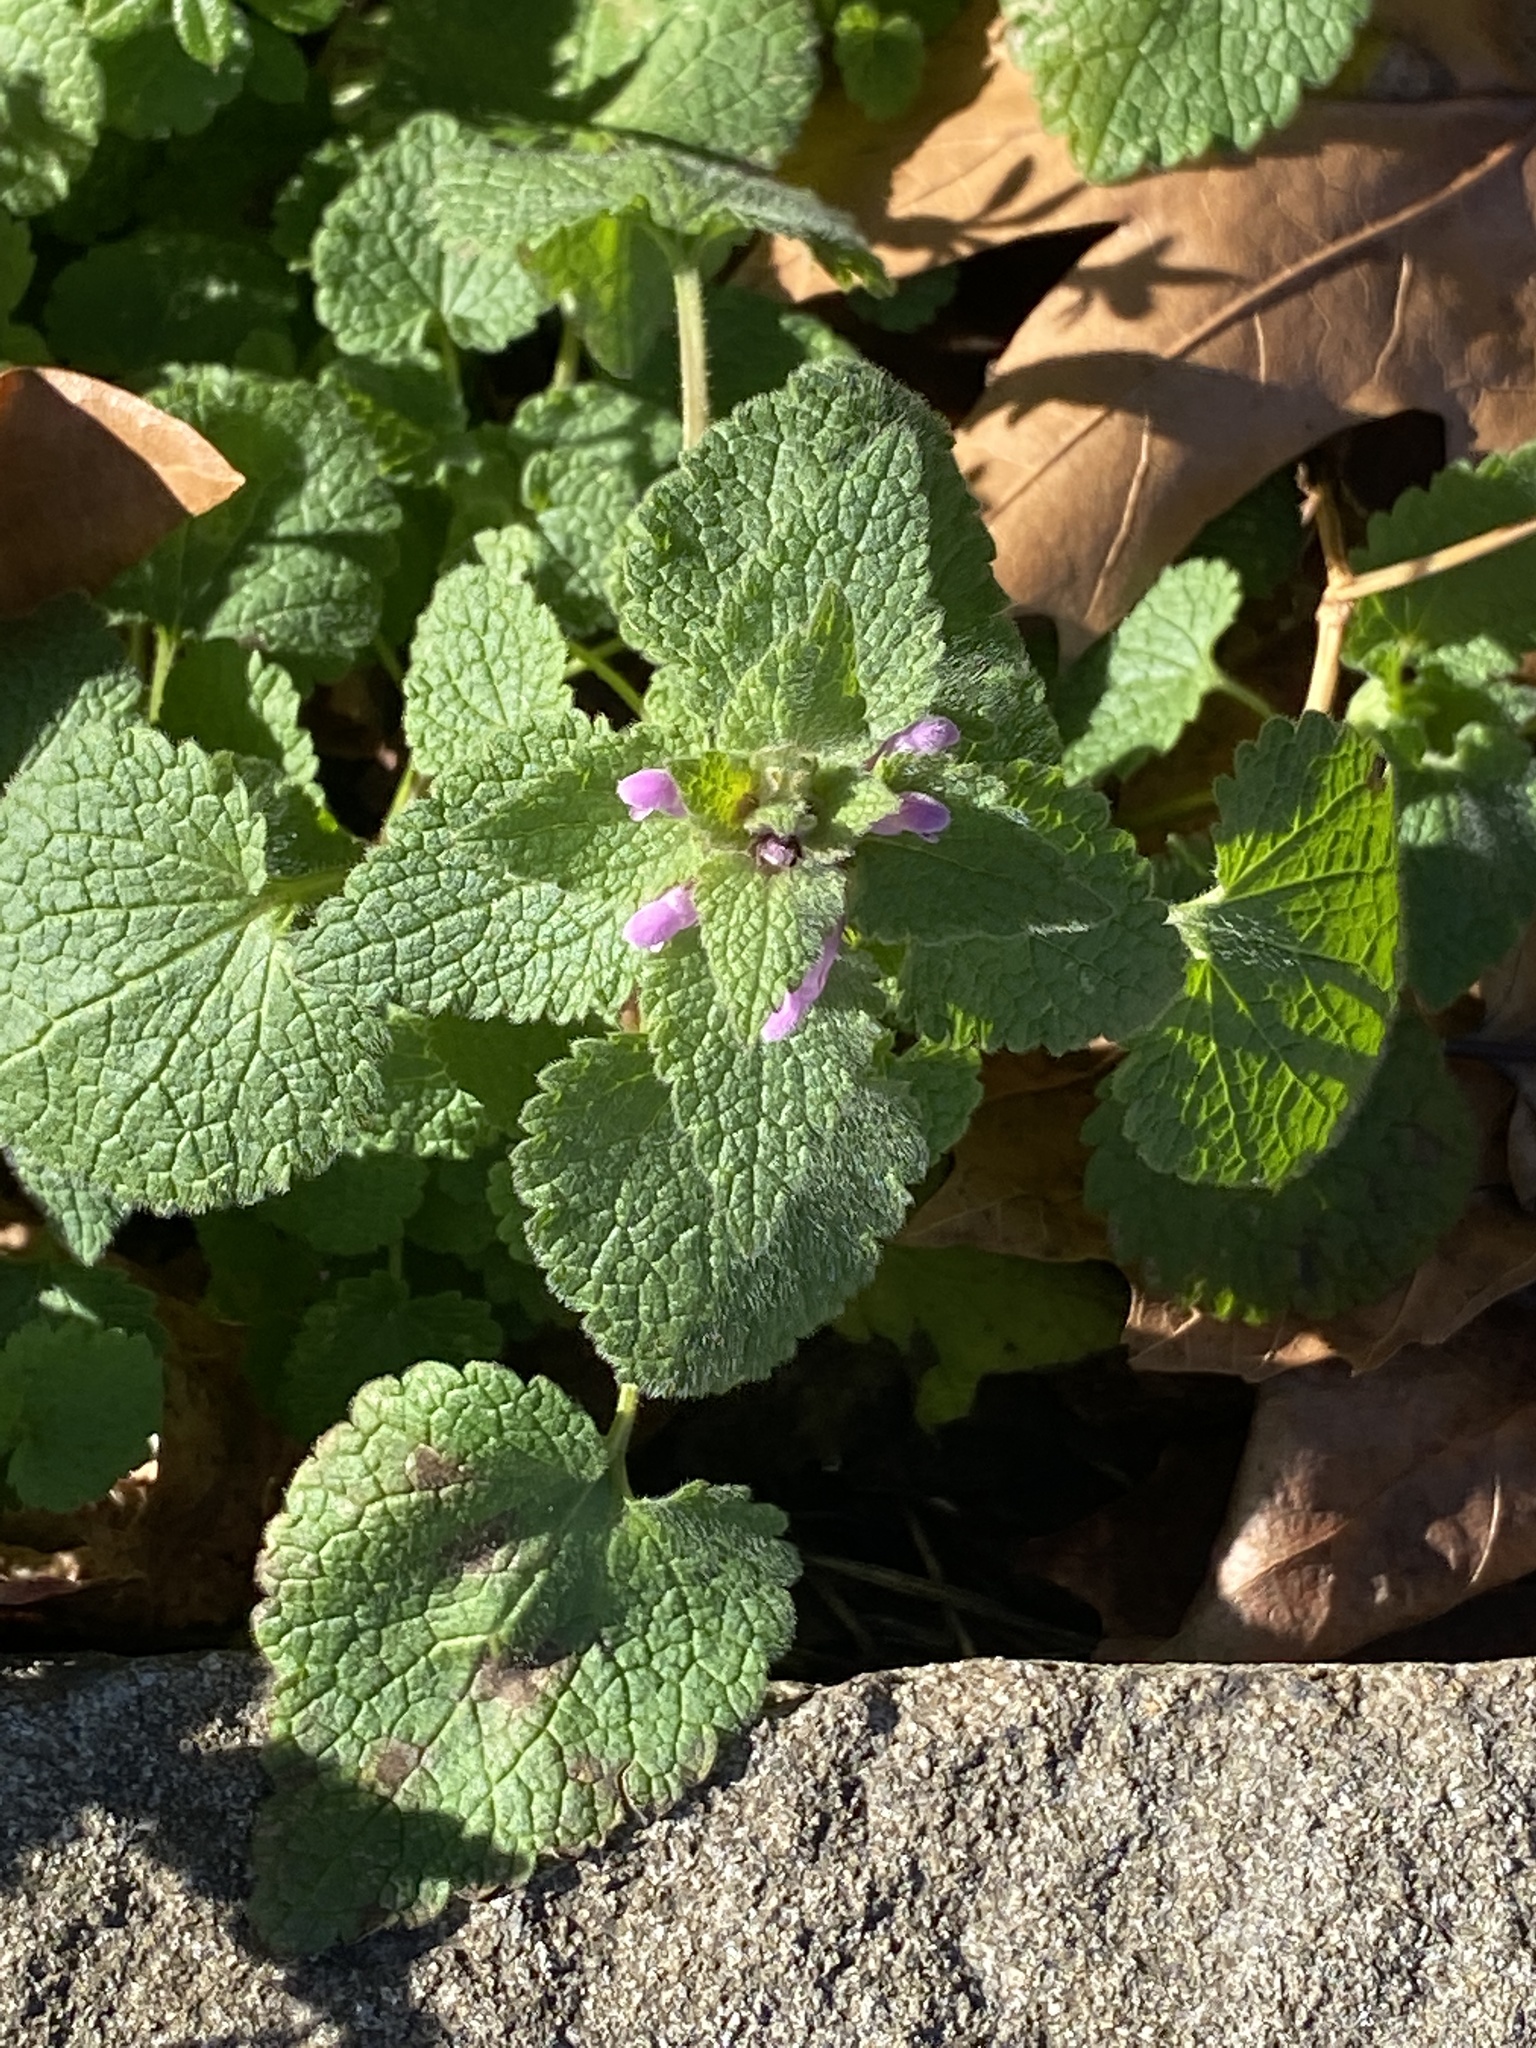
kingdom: Plantae
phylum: Tracheophyta
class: Magnoliopsida
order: Lamiales
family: Lamiaceae
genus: Lamium
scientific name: Lamium purpureum
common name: Red dead-nettle
